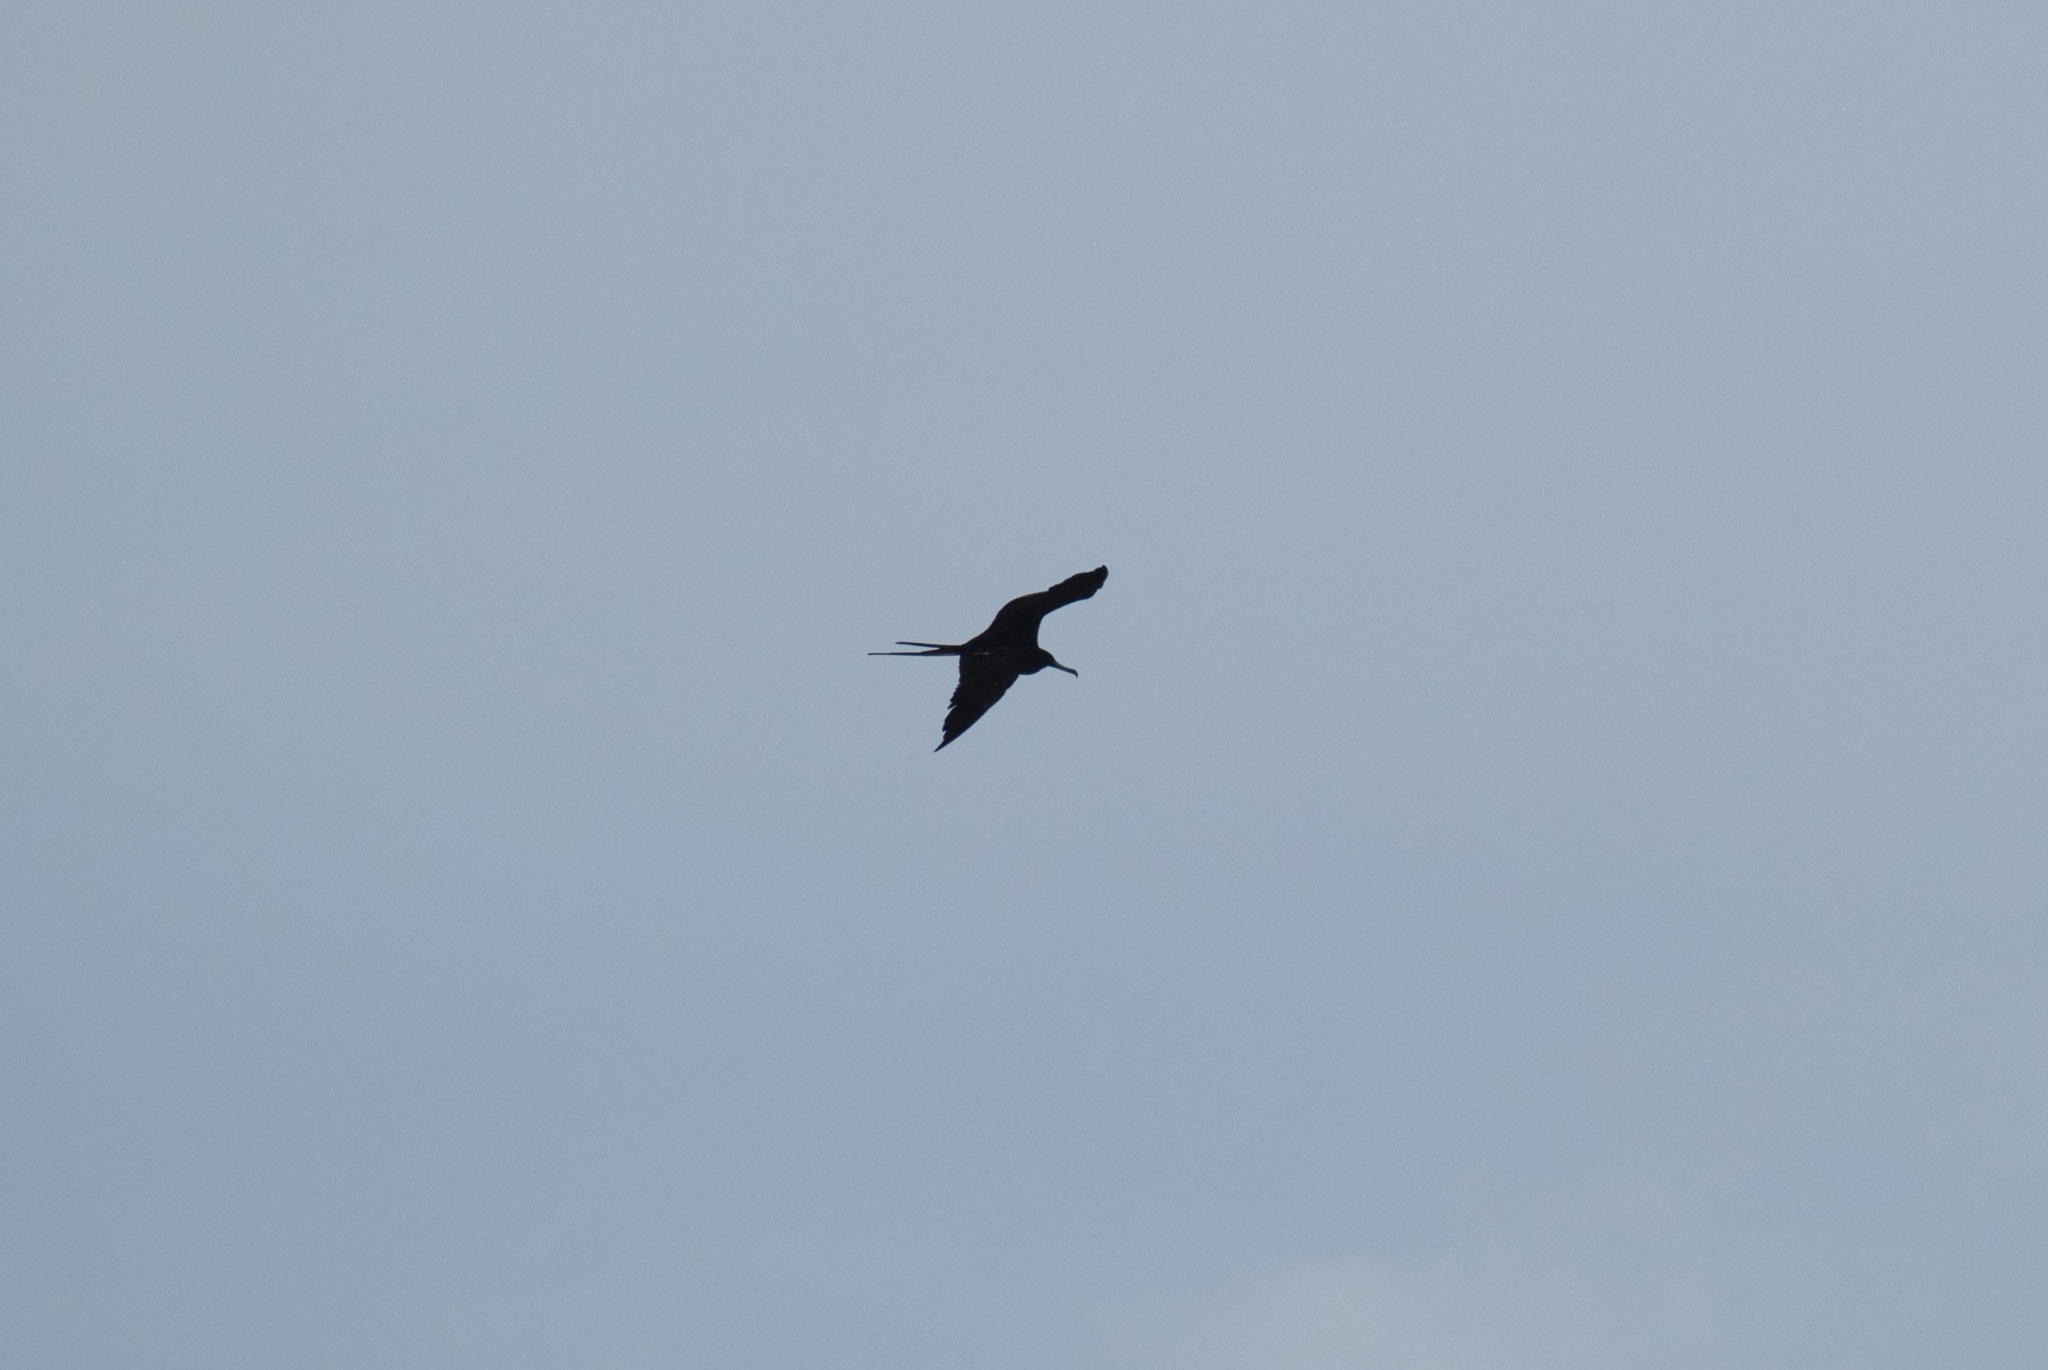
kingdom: Animalia
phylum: Chordata
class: Aves
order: Suliformes
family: Fregatidae
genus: Fregata
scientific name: Fregata magnificens
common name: Magnificent frigatebird
